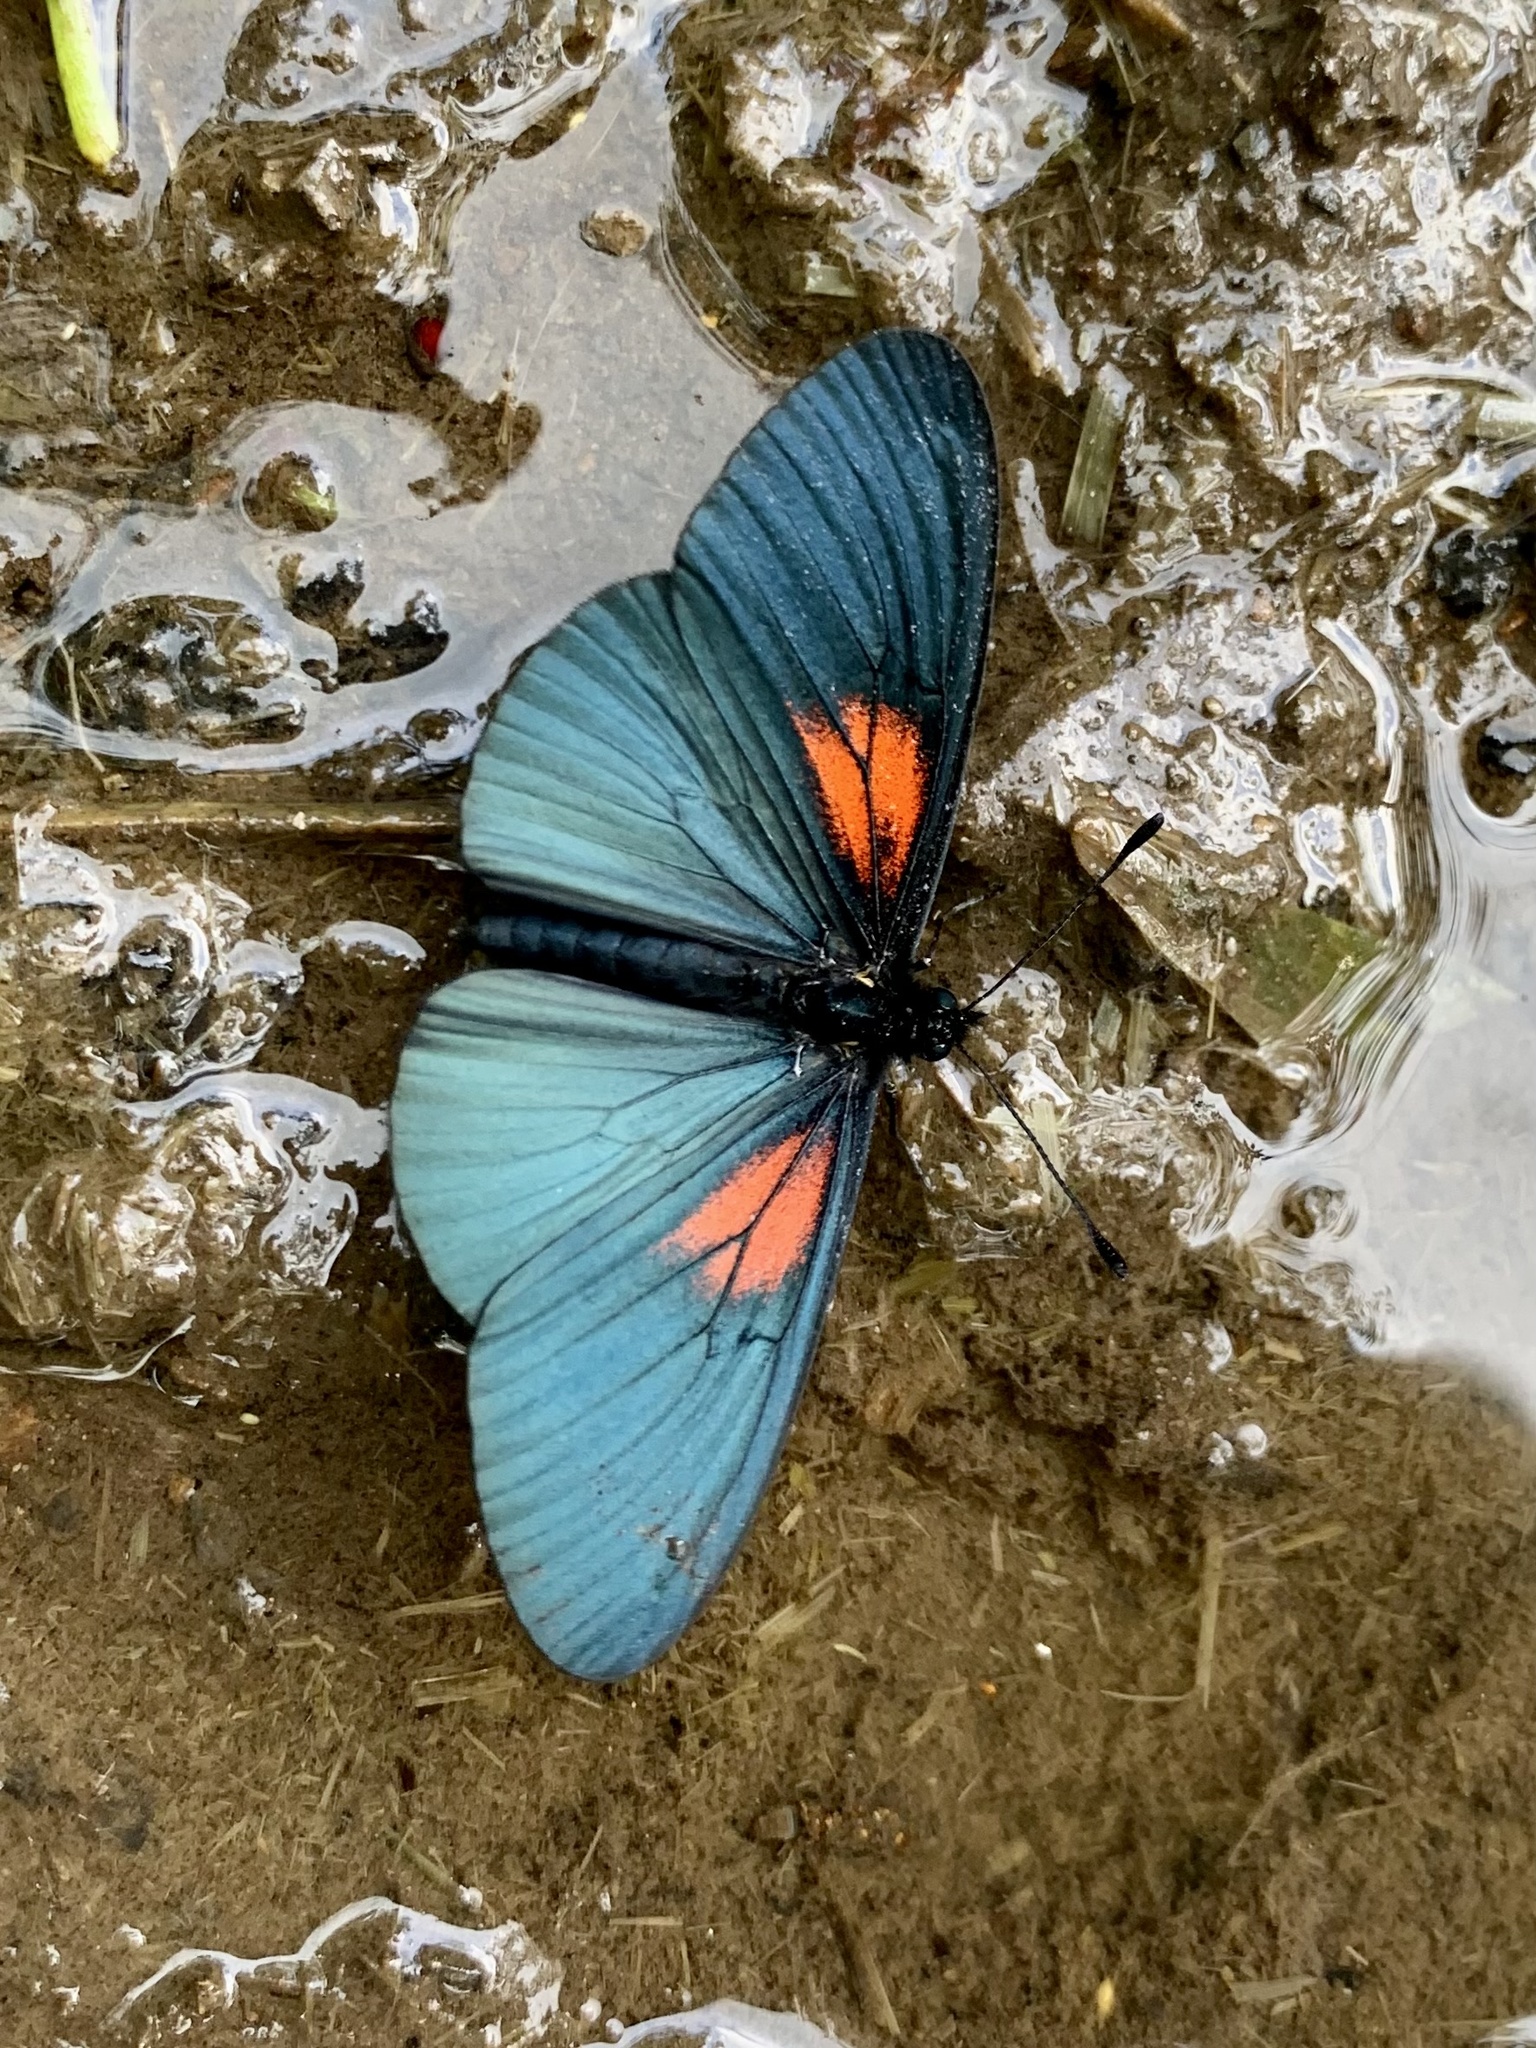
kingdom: Animalia
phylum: Arthropoda
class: Insecta
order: Lepidoptera
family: Nymphalidae
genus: Acraea
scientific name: Acraea Altinote ozomene
